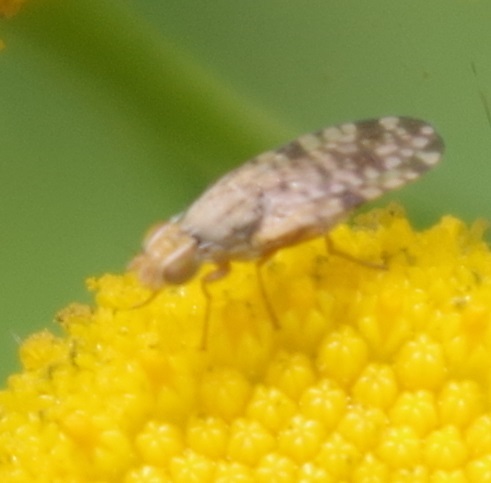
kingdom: Animalia
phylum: Arthropoda
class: Insecta
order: Diptera
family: Tephritidae
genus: Dioxyna
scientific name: Dioxyna bidentis
